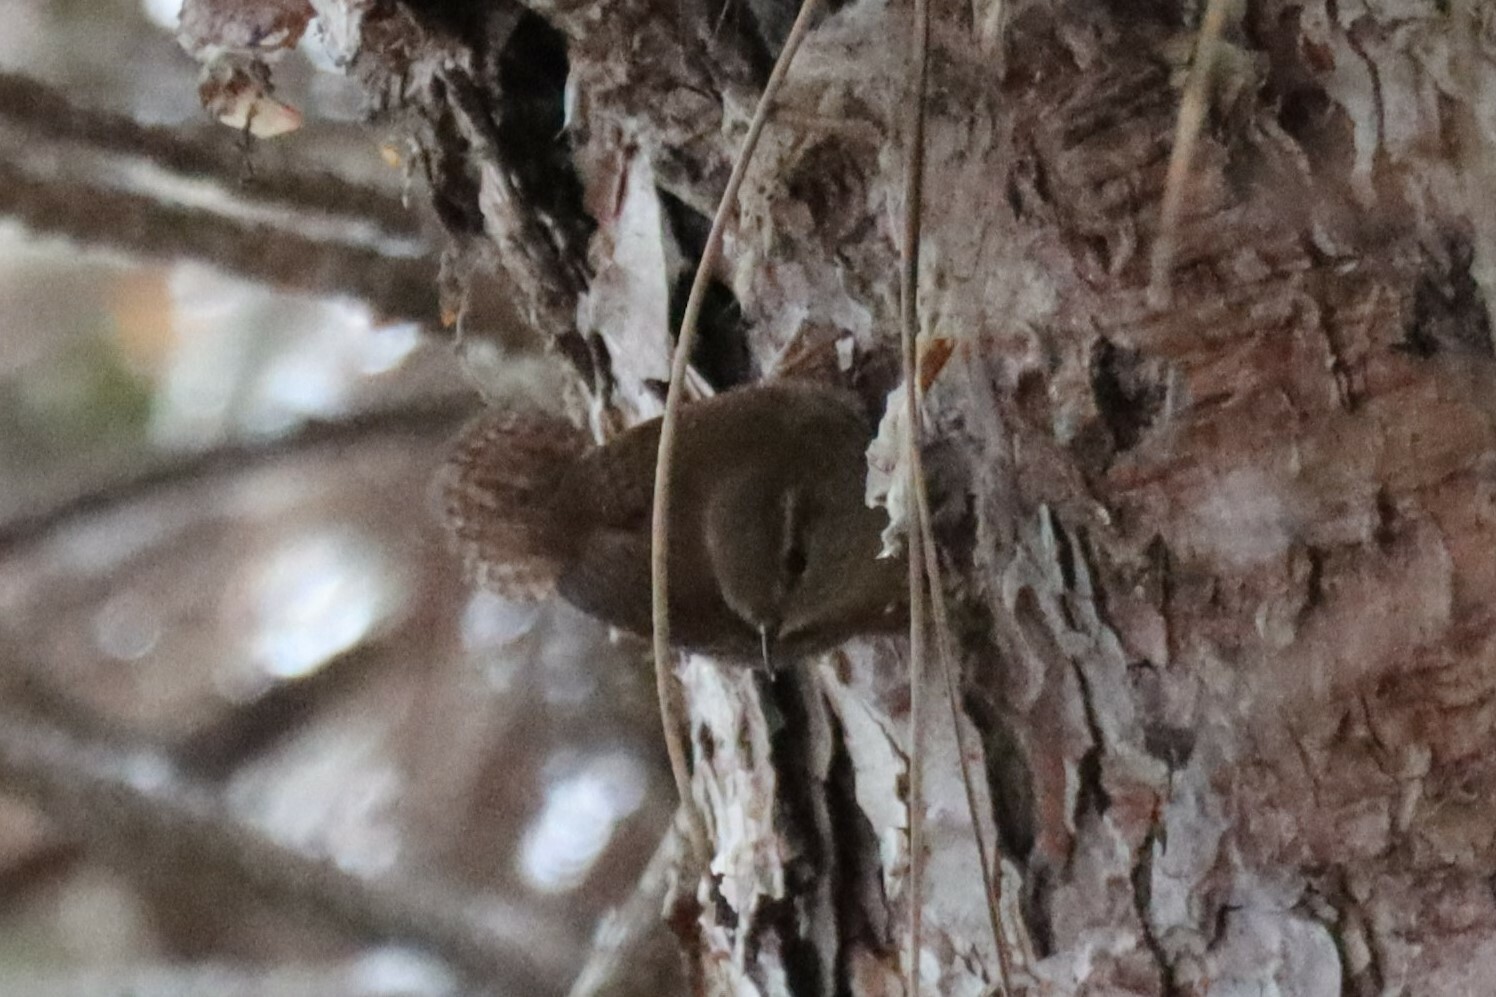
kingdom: Animalia
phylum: Chordata
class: Aves
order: Passeriformes
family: Troglodytidae
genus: Troglodytes
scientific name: Troglodytes troglodytes
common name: Eurasian wren
